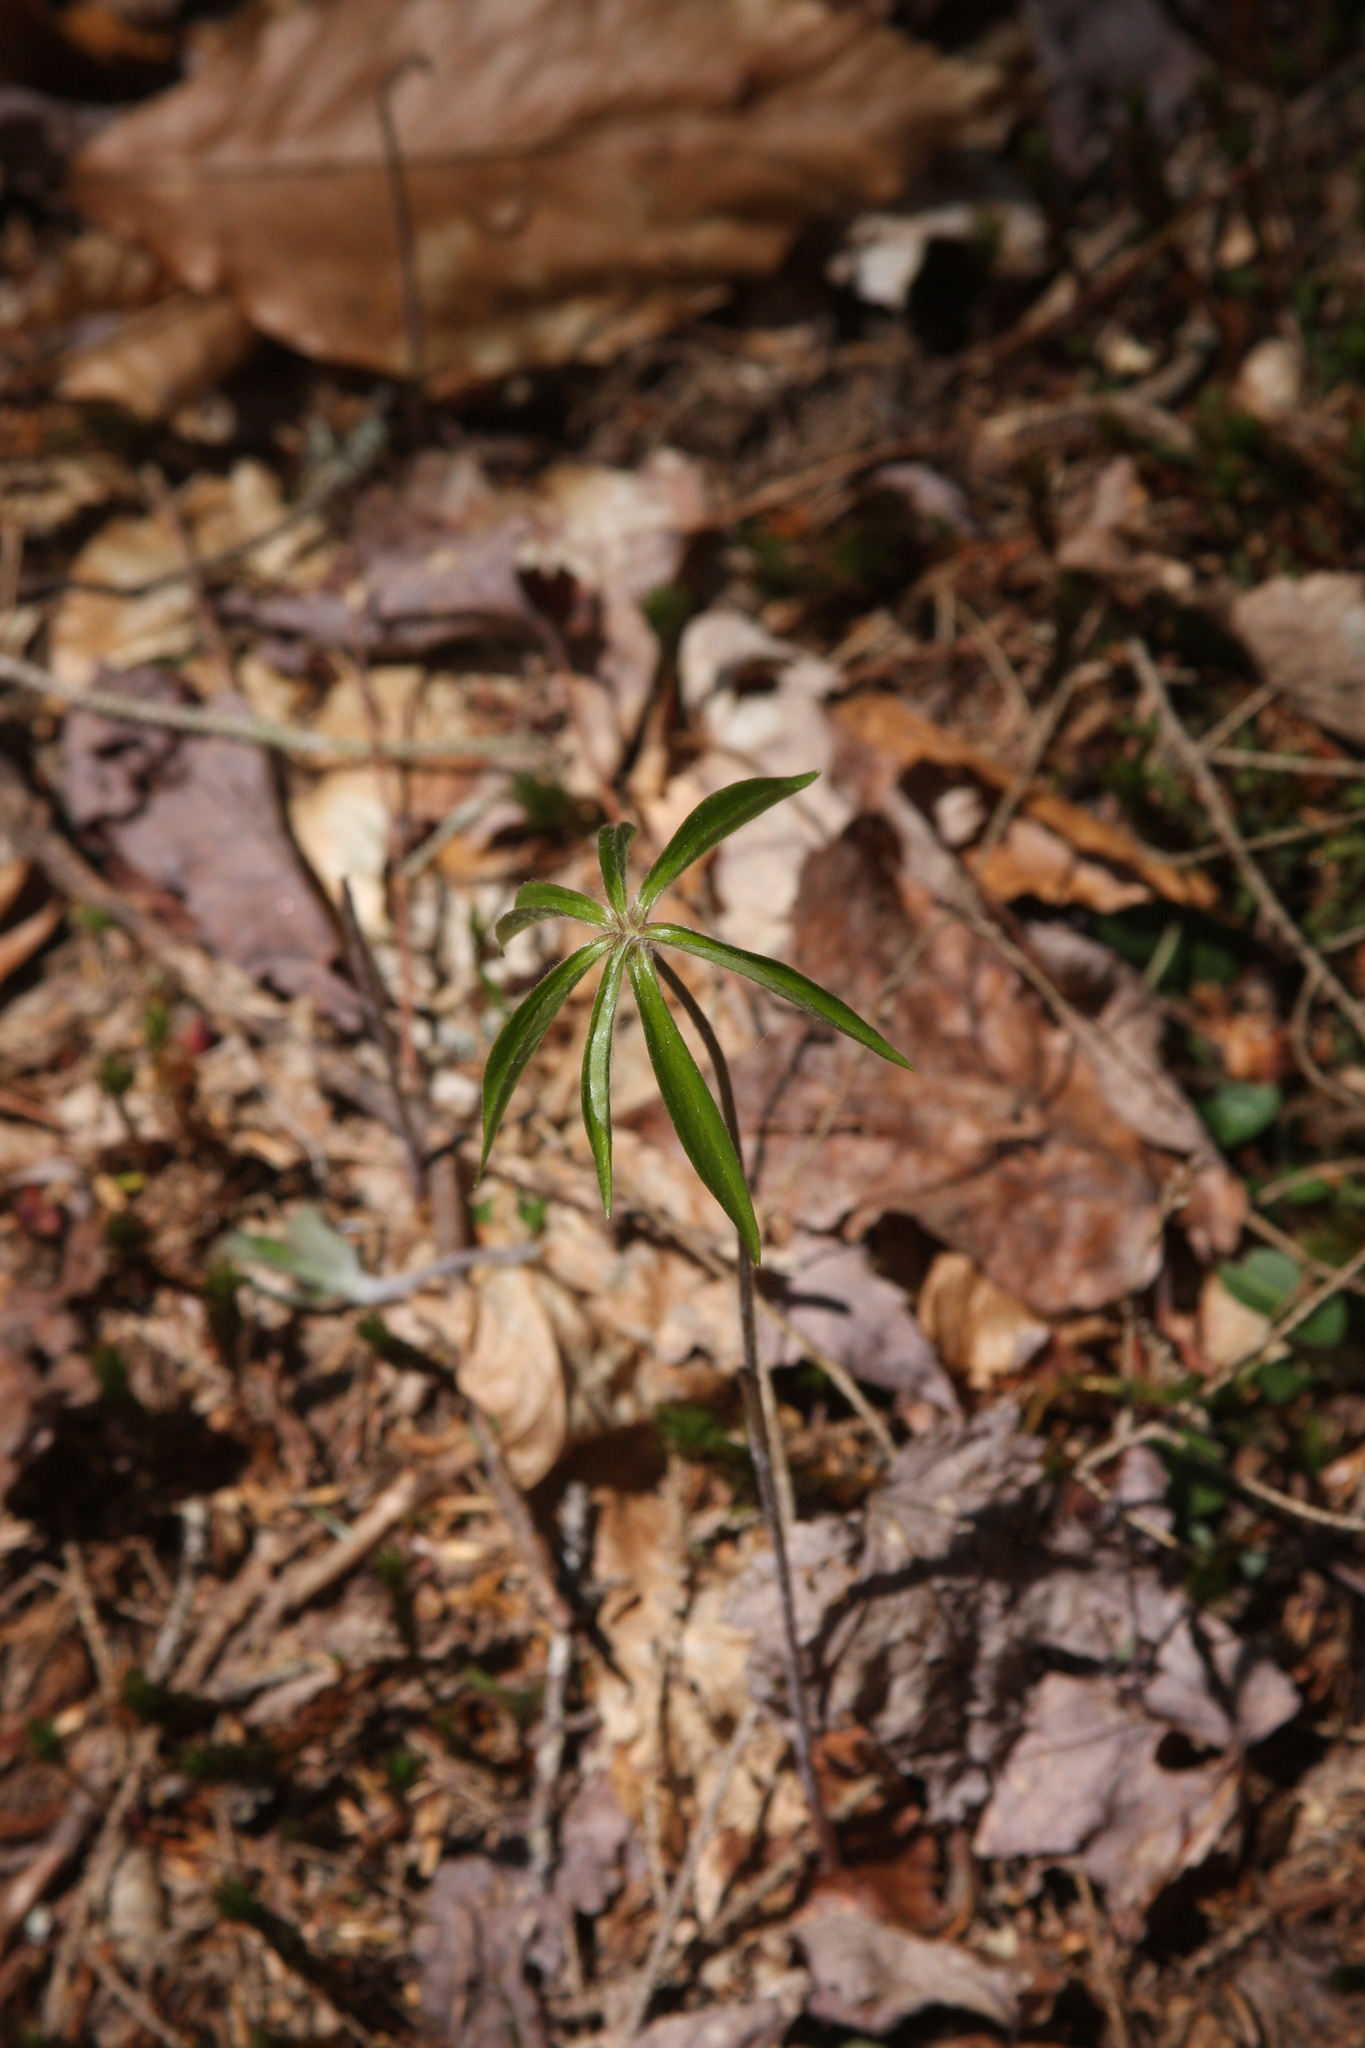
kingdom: Plantae
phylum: Tracheophyta
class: Liliopsida
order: Liliales
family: Liliaceae
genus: Medeola
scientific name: Medeola virginiana
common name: Indian cucumber-root
